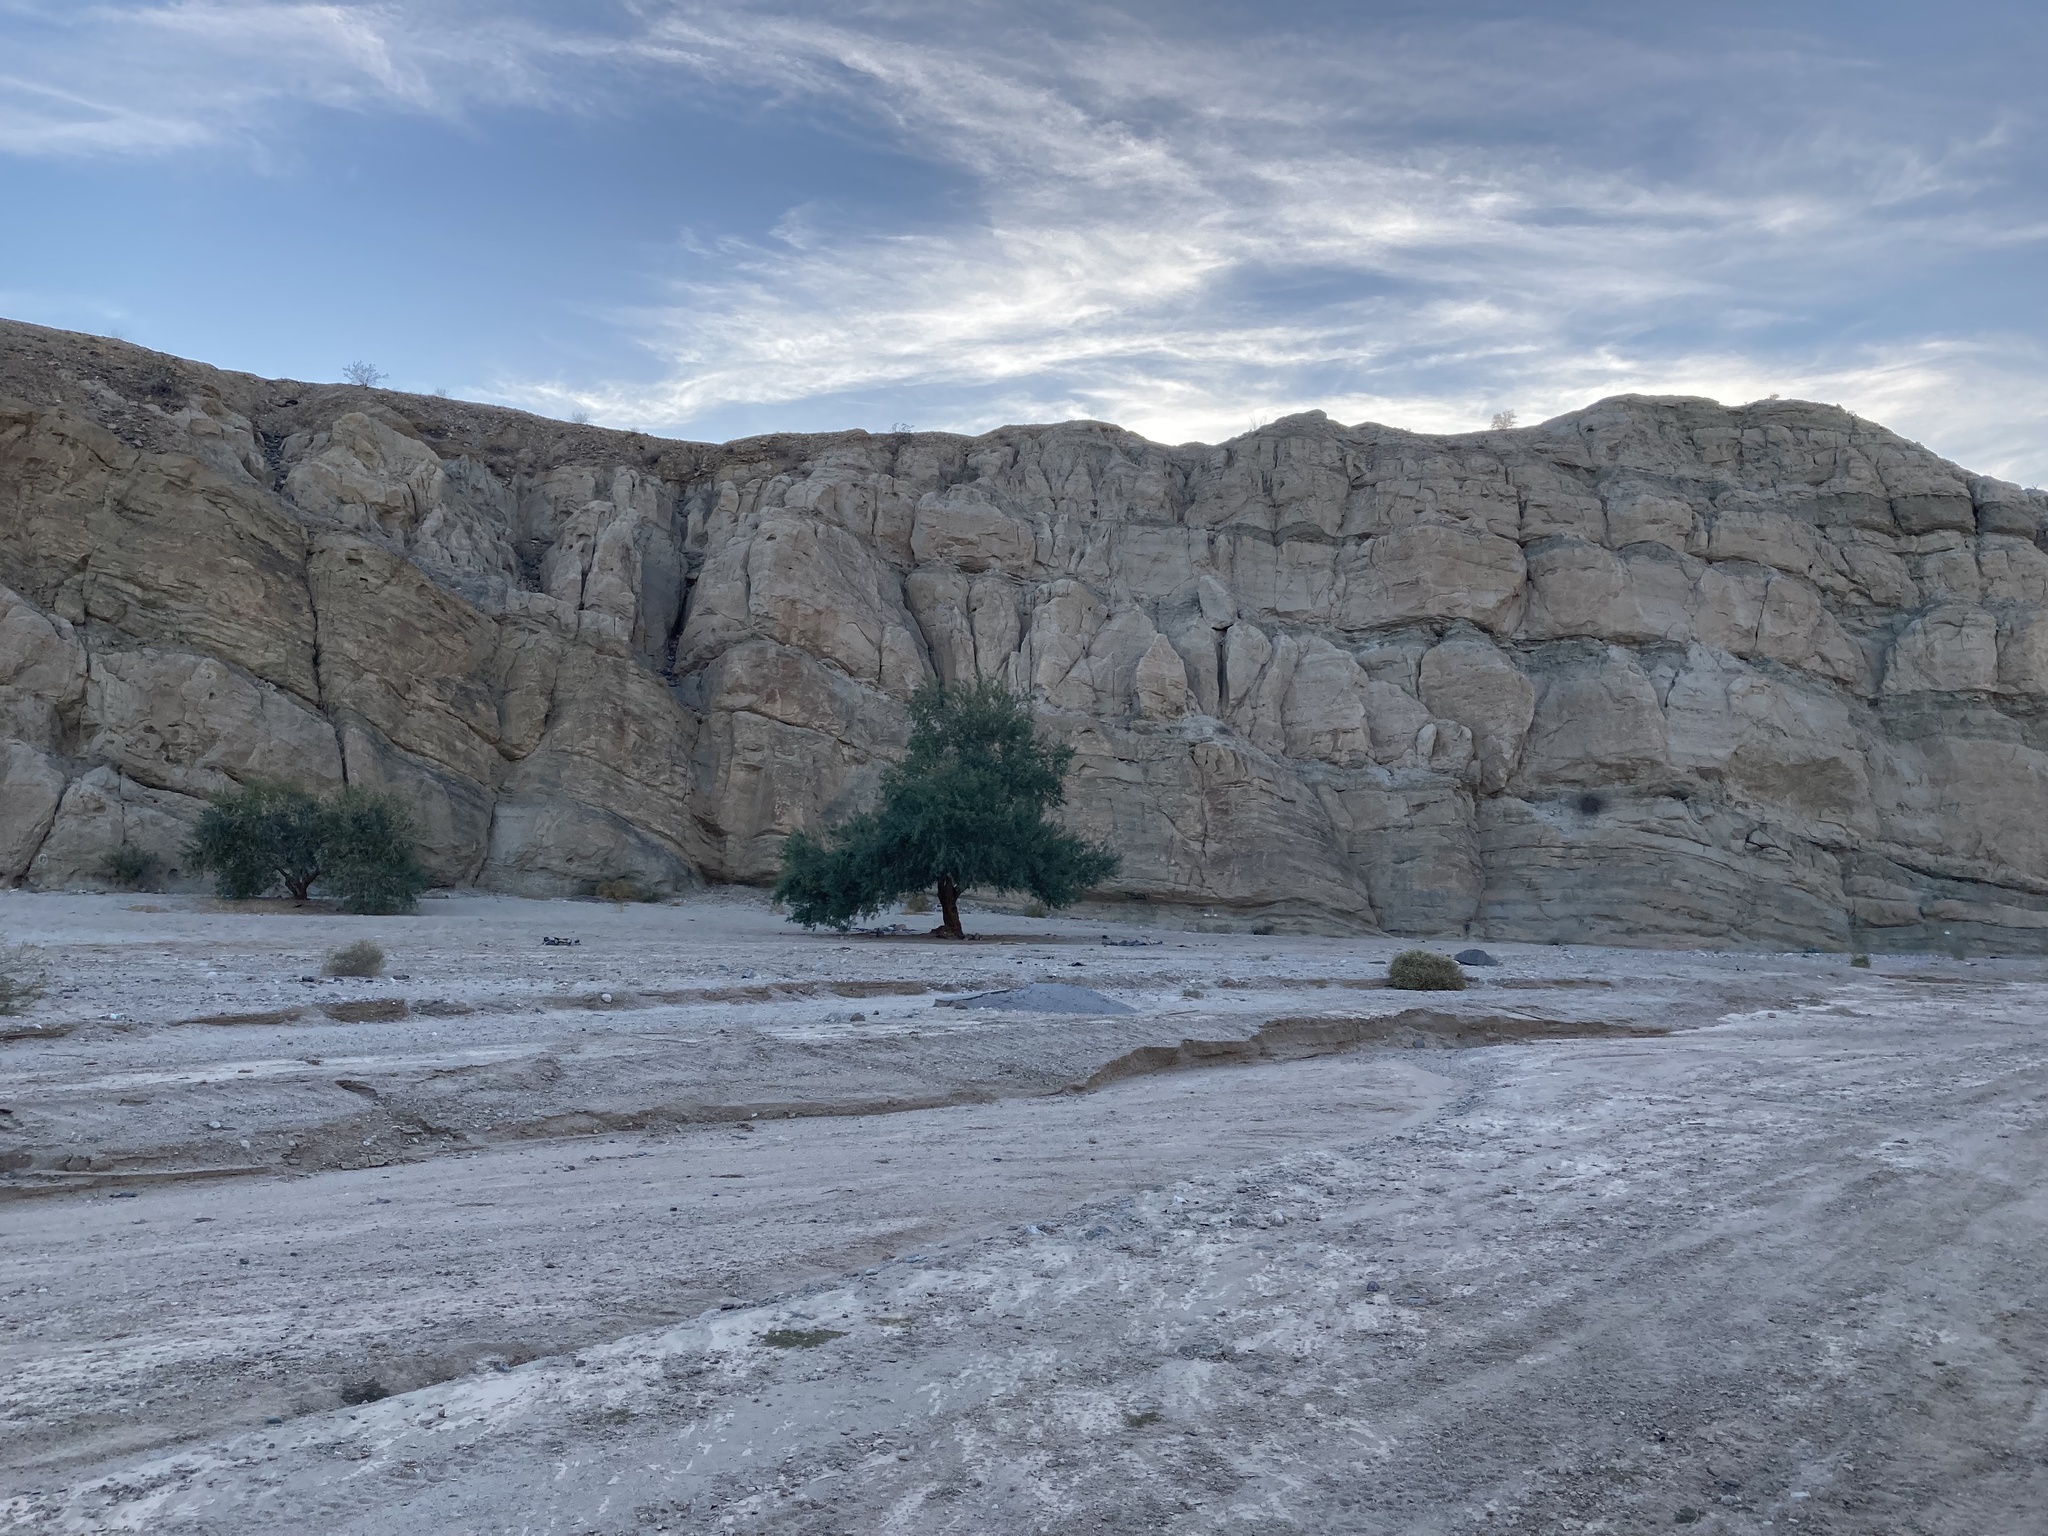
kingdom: Plantae
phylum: Tracheophyta
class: Magnoliopsida
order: Fabales
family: Fabaceae
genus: Olneya
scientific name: Olneya tesota
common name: Desert ironwood
